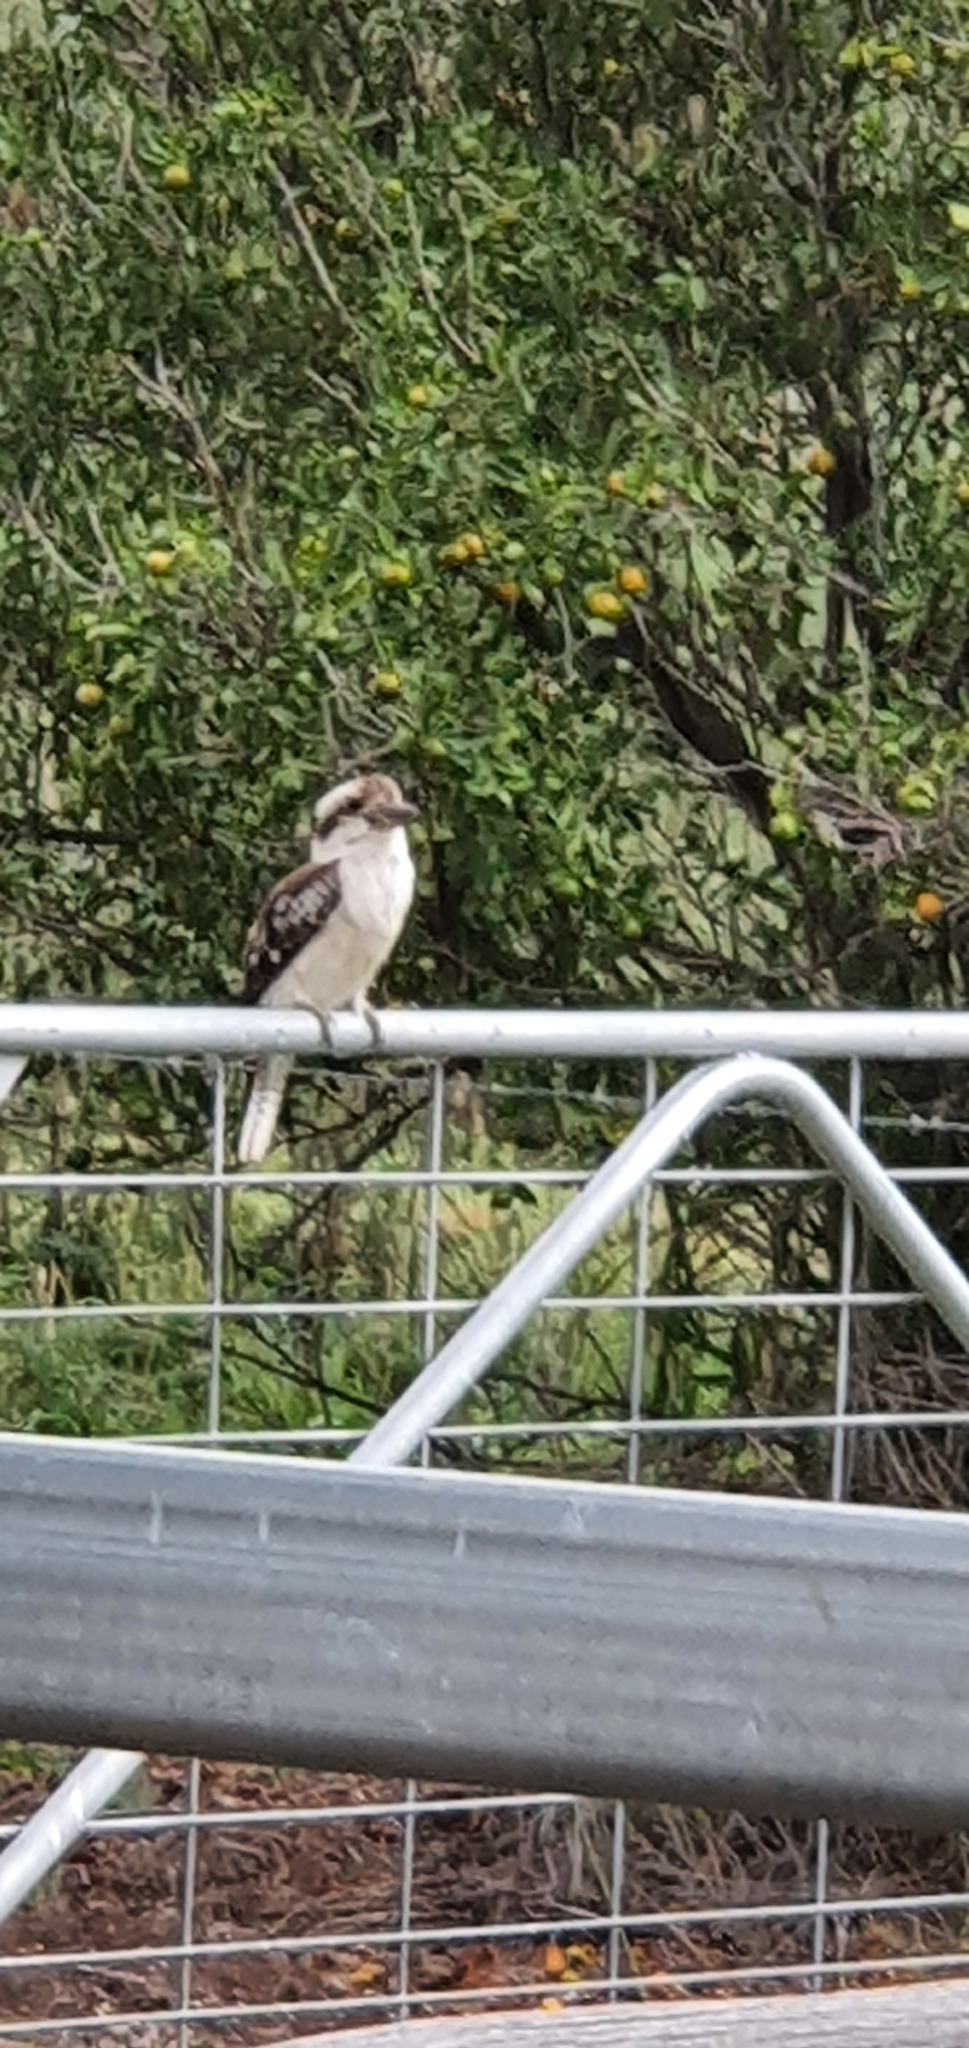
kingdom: Animalia
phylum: Chordata
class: Aves
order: Coraciiformes
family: Alcedinidae
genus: Dacelo
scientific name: Dacelo novaeguineae
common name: Laughing kookaburra
